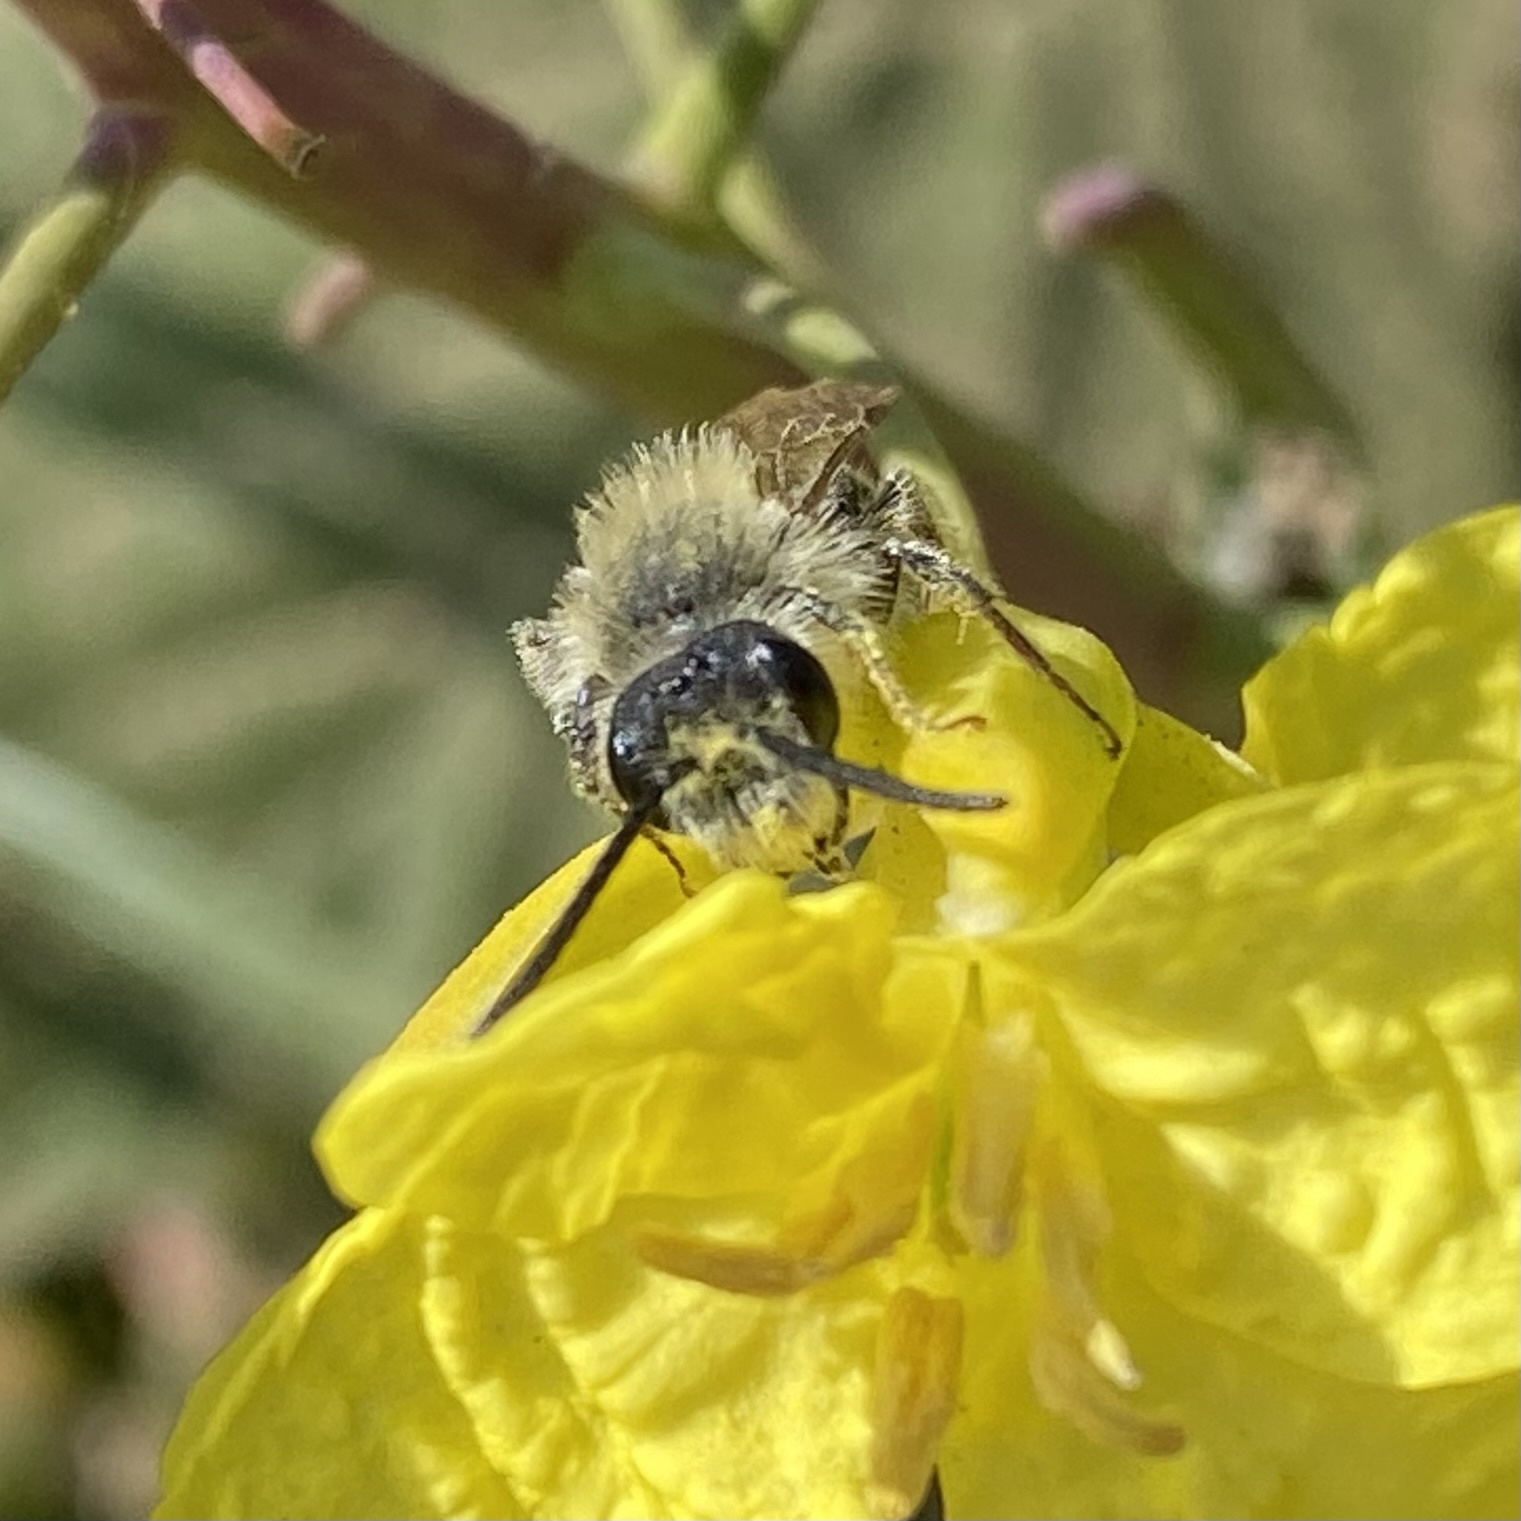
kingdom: Animalia
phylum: Arthropoda
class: Insecta
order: Hymenoptera
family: Andrenidae
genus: Andrena
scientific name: Andrena
